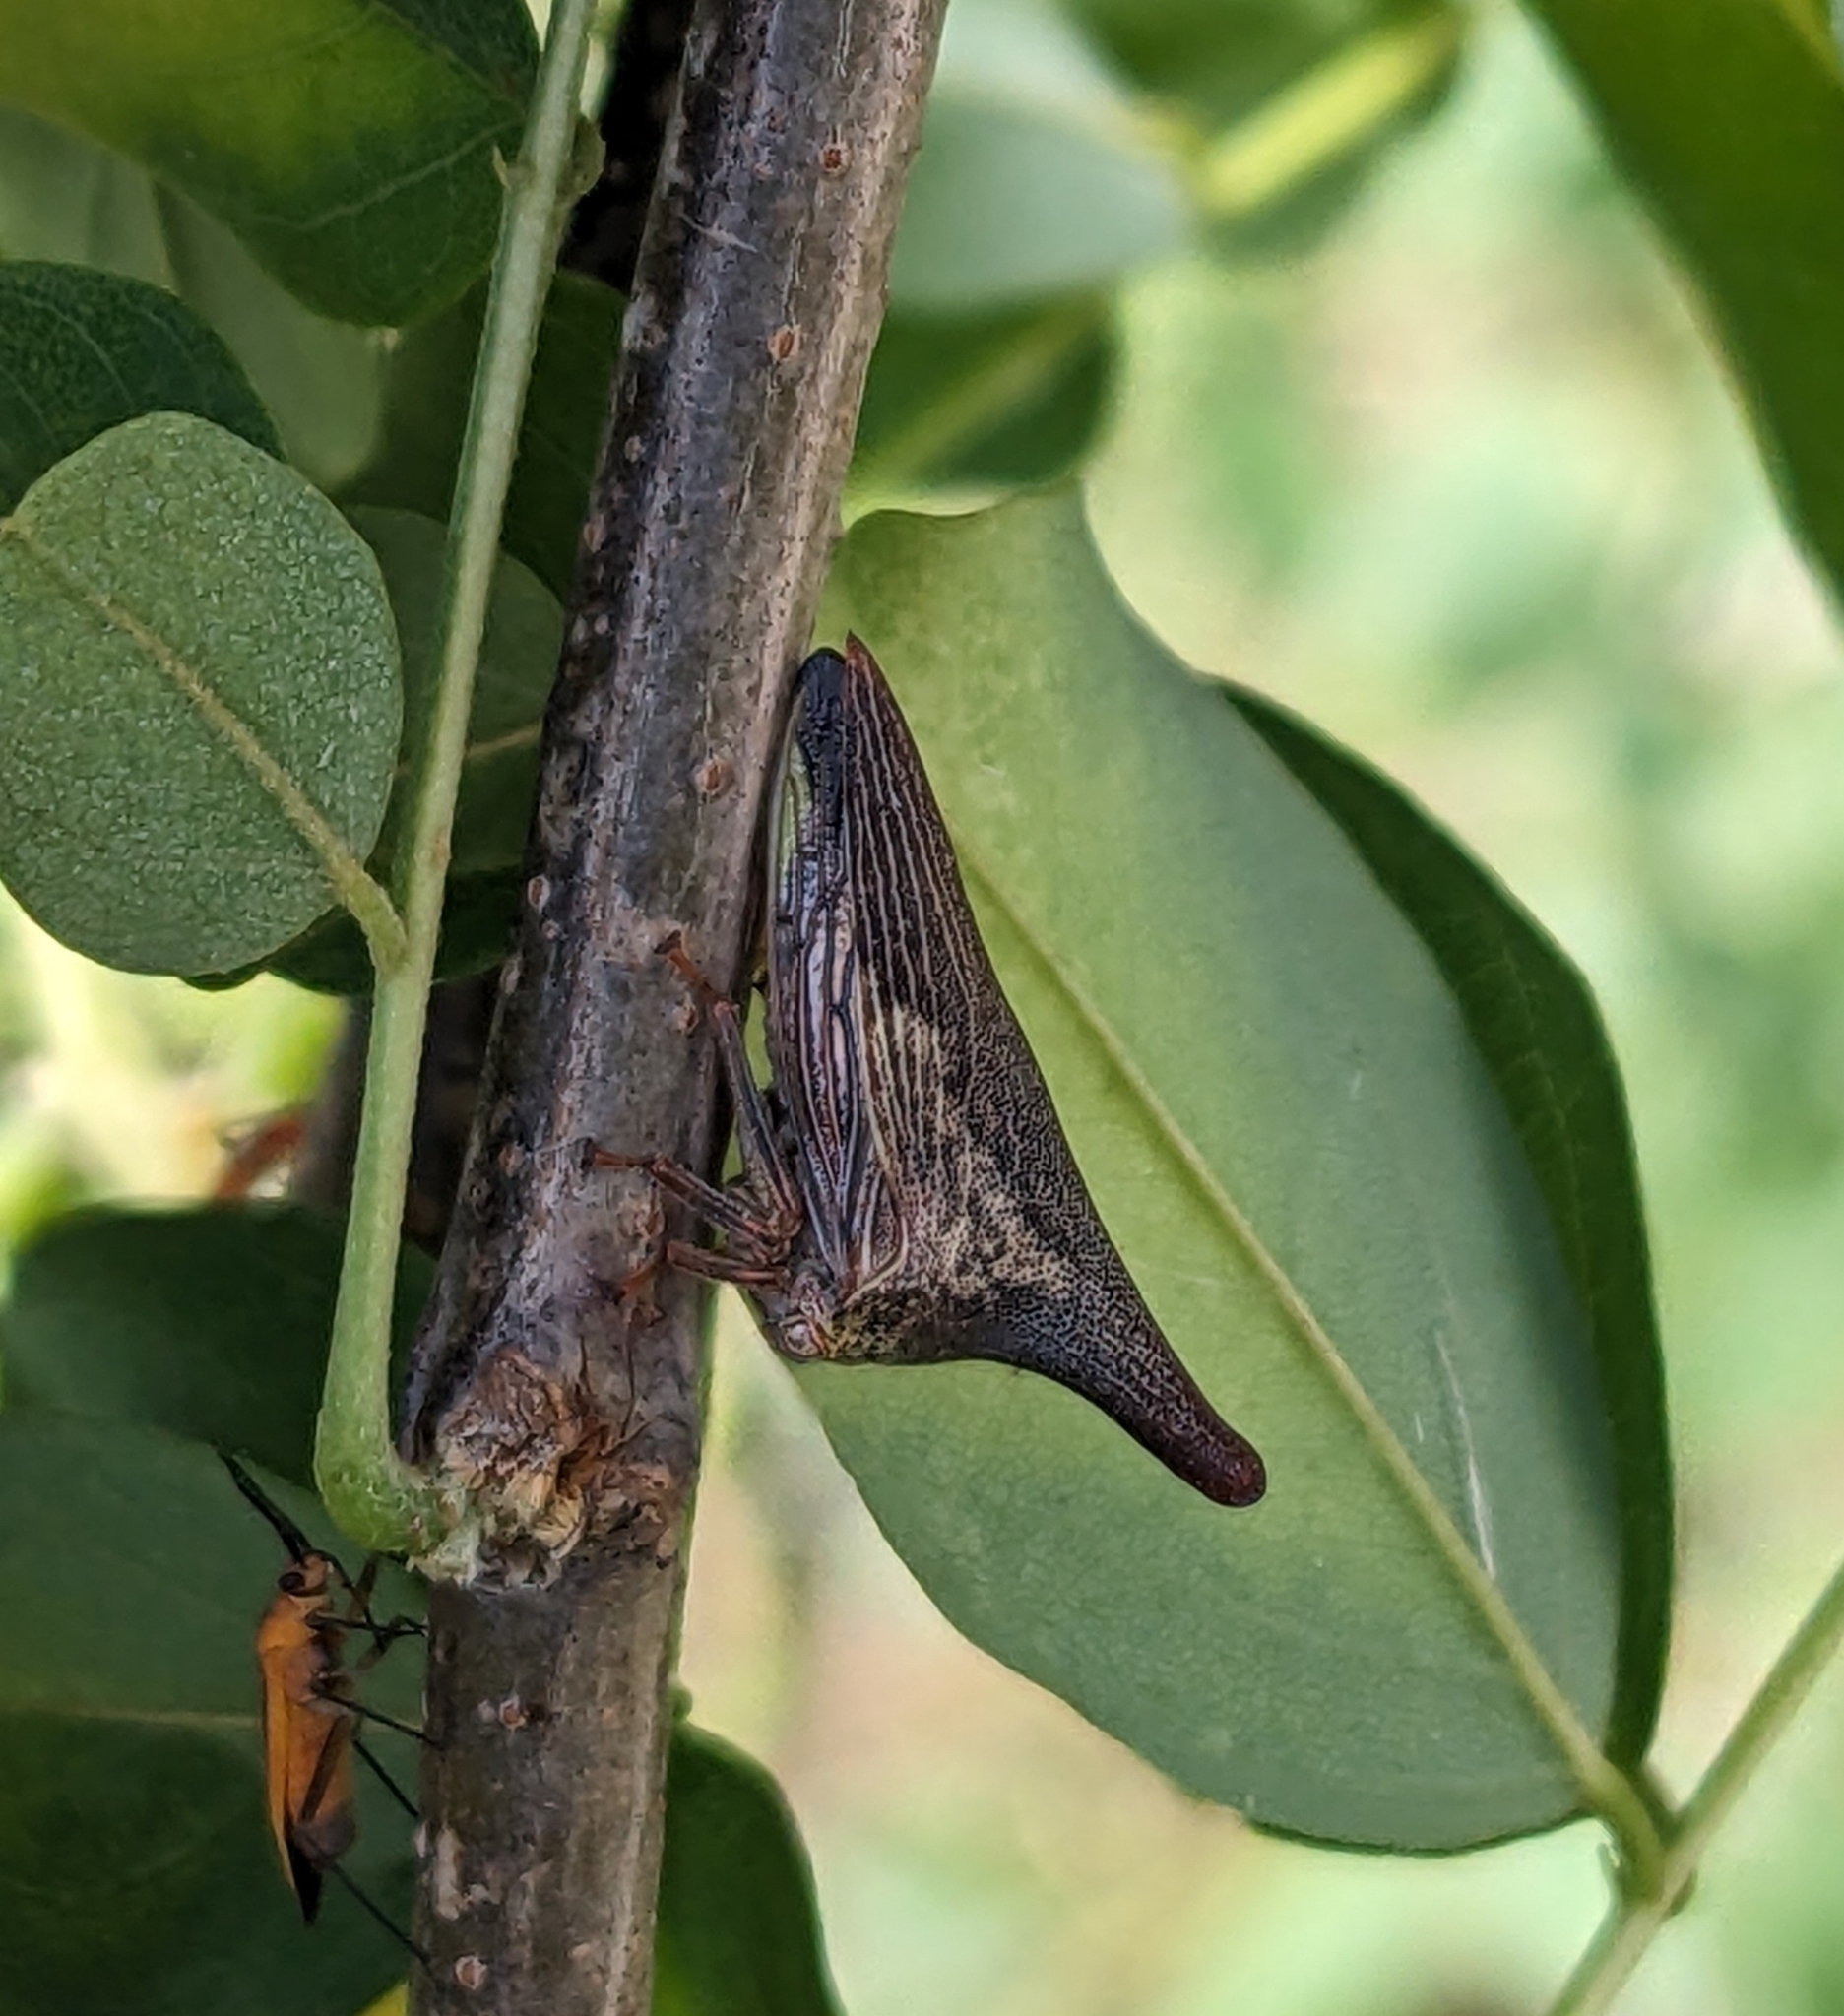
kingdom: Animalia
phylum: Arthropoda
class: Insecta
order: Hemiptera
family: Membracidae
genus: Thelia
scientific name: Thelia bimaculata
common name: Locust treehopper
